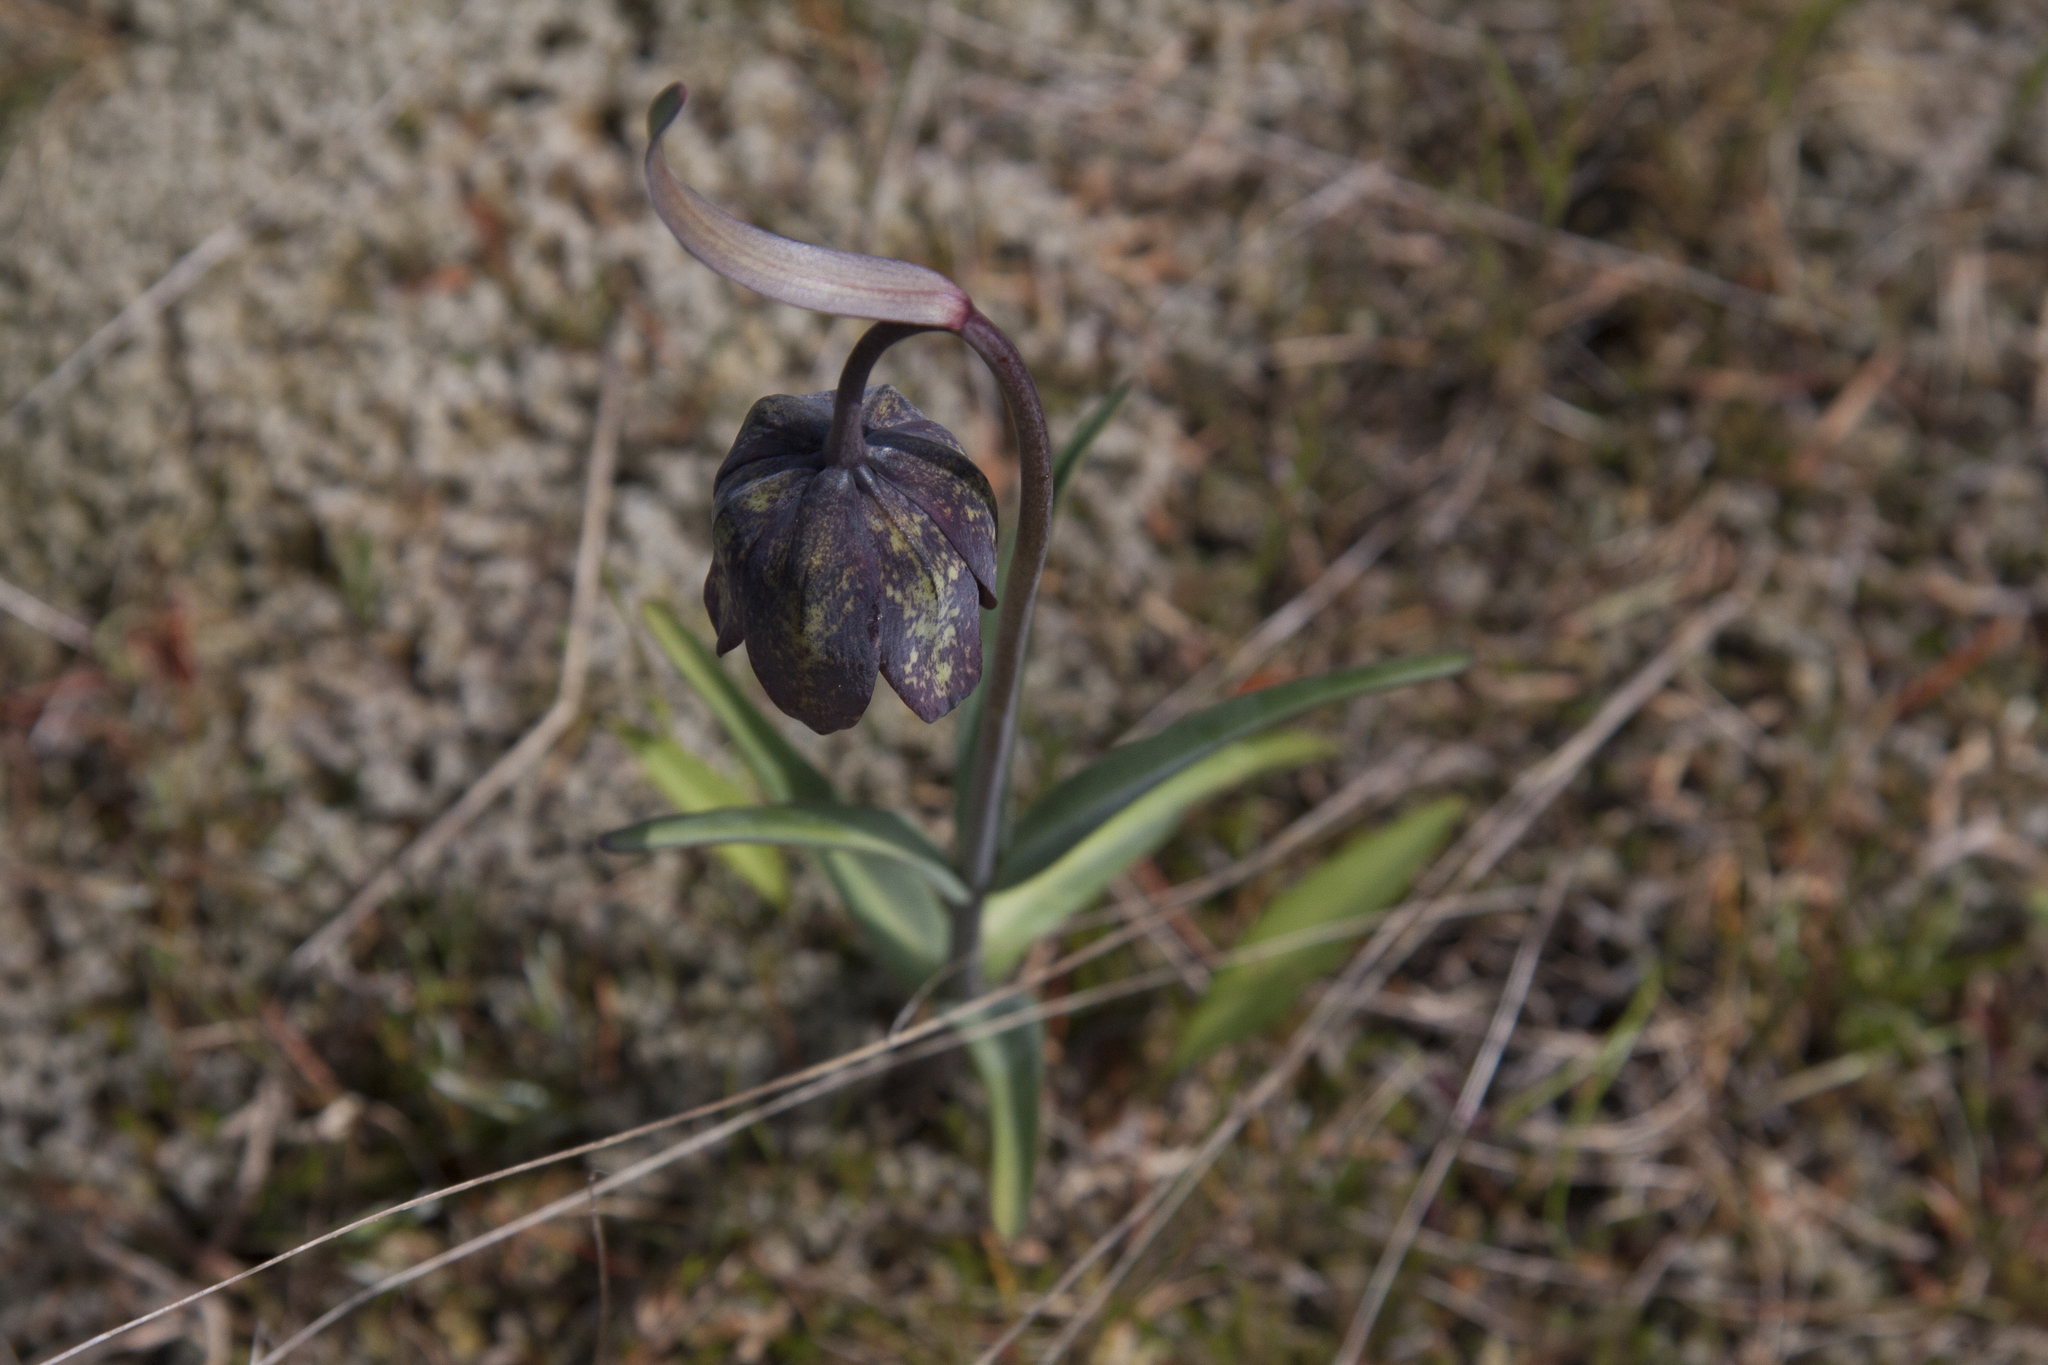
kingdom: Plantae
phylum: Tracheophyta
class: Liliopsida
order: Liliales
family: Liliaceae
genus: Fritillaria
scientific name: Fritillaria affinis
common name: Ojai fritillary
